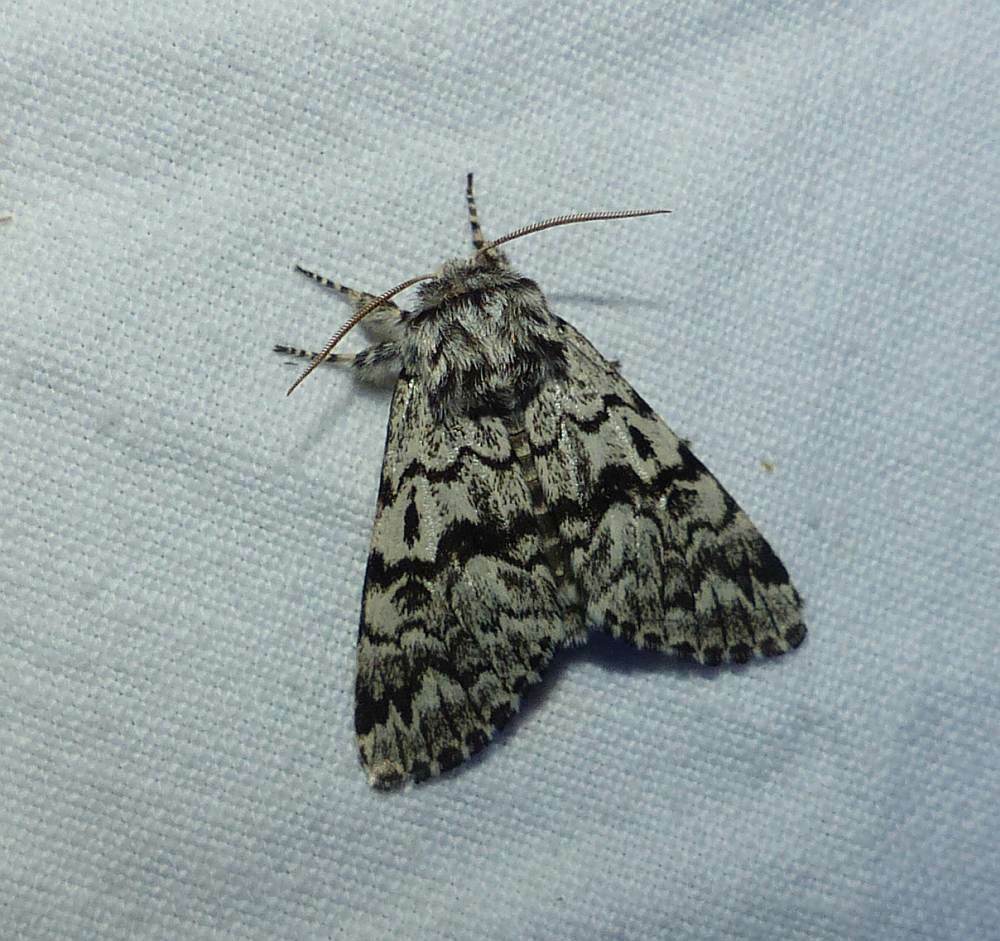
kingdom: Animalia
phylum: Arthropoda
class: Insecta
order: Lepidoptera
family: Noctuidae
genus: Panthea
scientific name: Panthea acronyctoides
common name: Black zigzag moth
